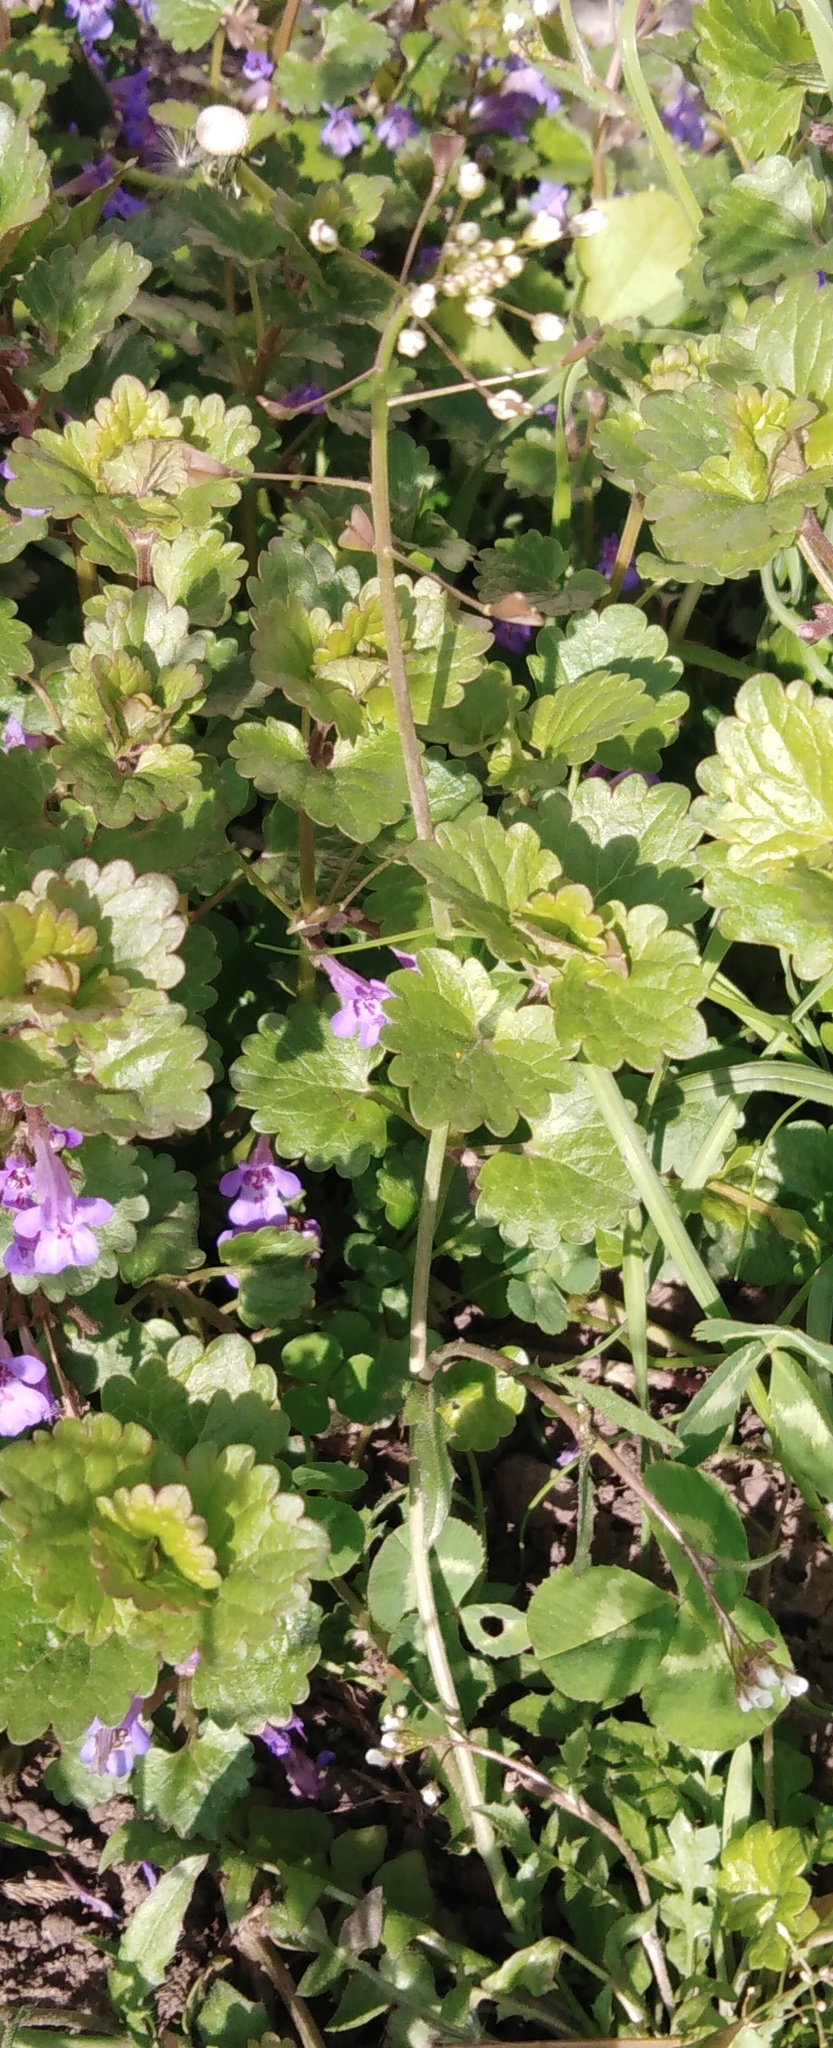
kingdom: Plantae
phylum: Tracheophyta
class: Magnoliopsida
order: Brassicales
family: Brassicaceae
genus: Capsella
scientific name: Capsella bursa-pastoris
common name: Shepherd's purse
